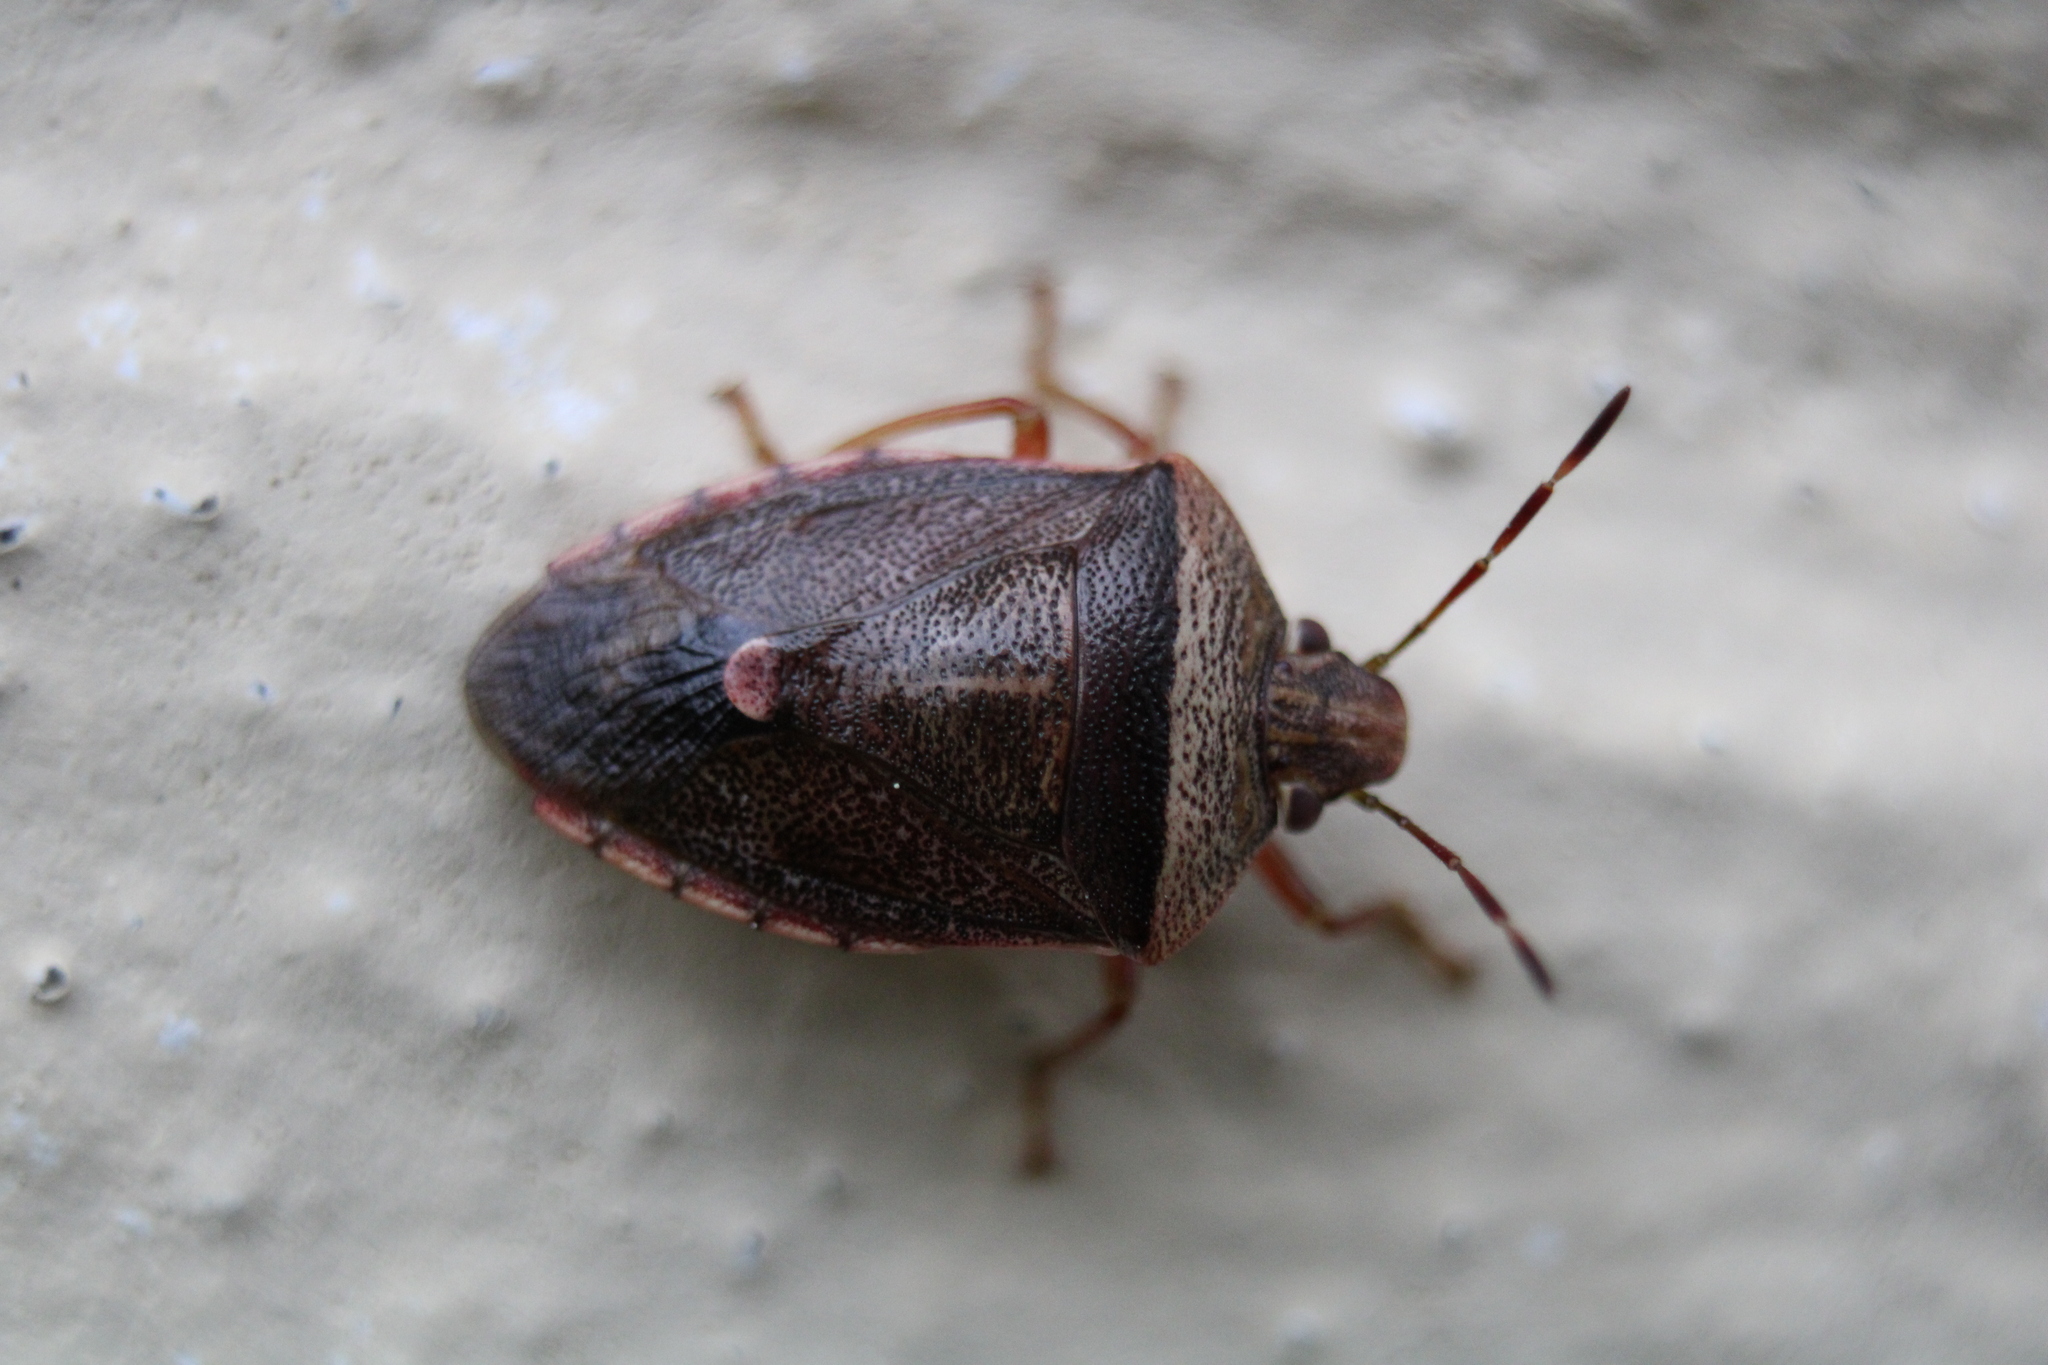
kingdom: Animalia
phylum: Arthropoda
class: Insecta
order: Hemiptera
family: Pentatomidae
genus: Banasa
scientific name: Banasa calva
